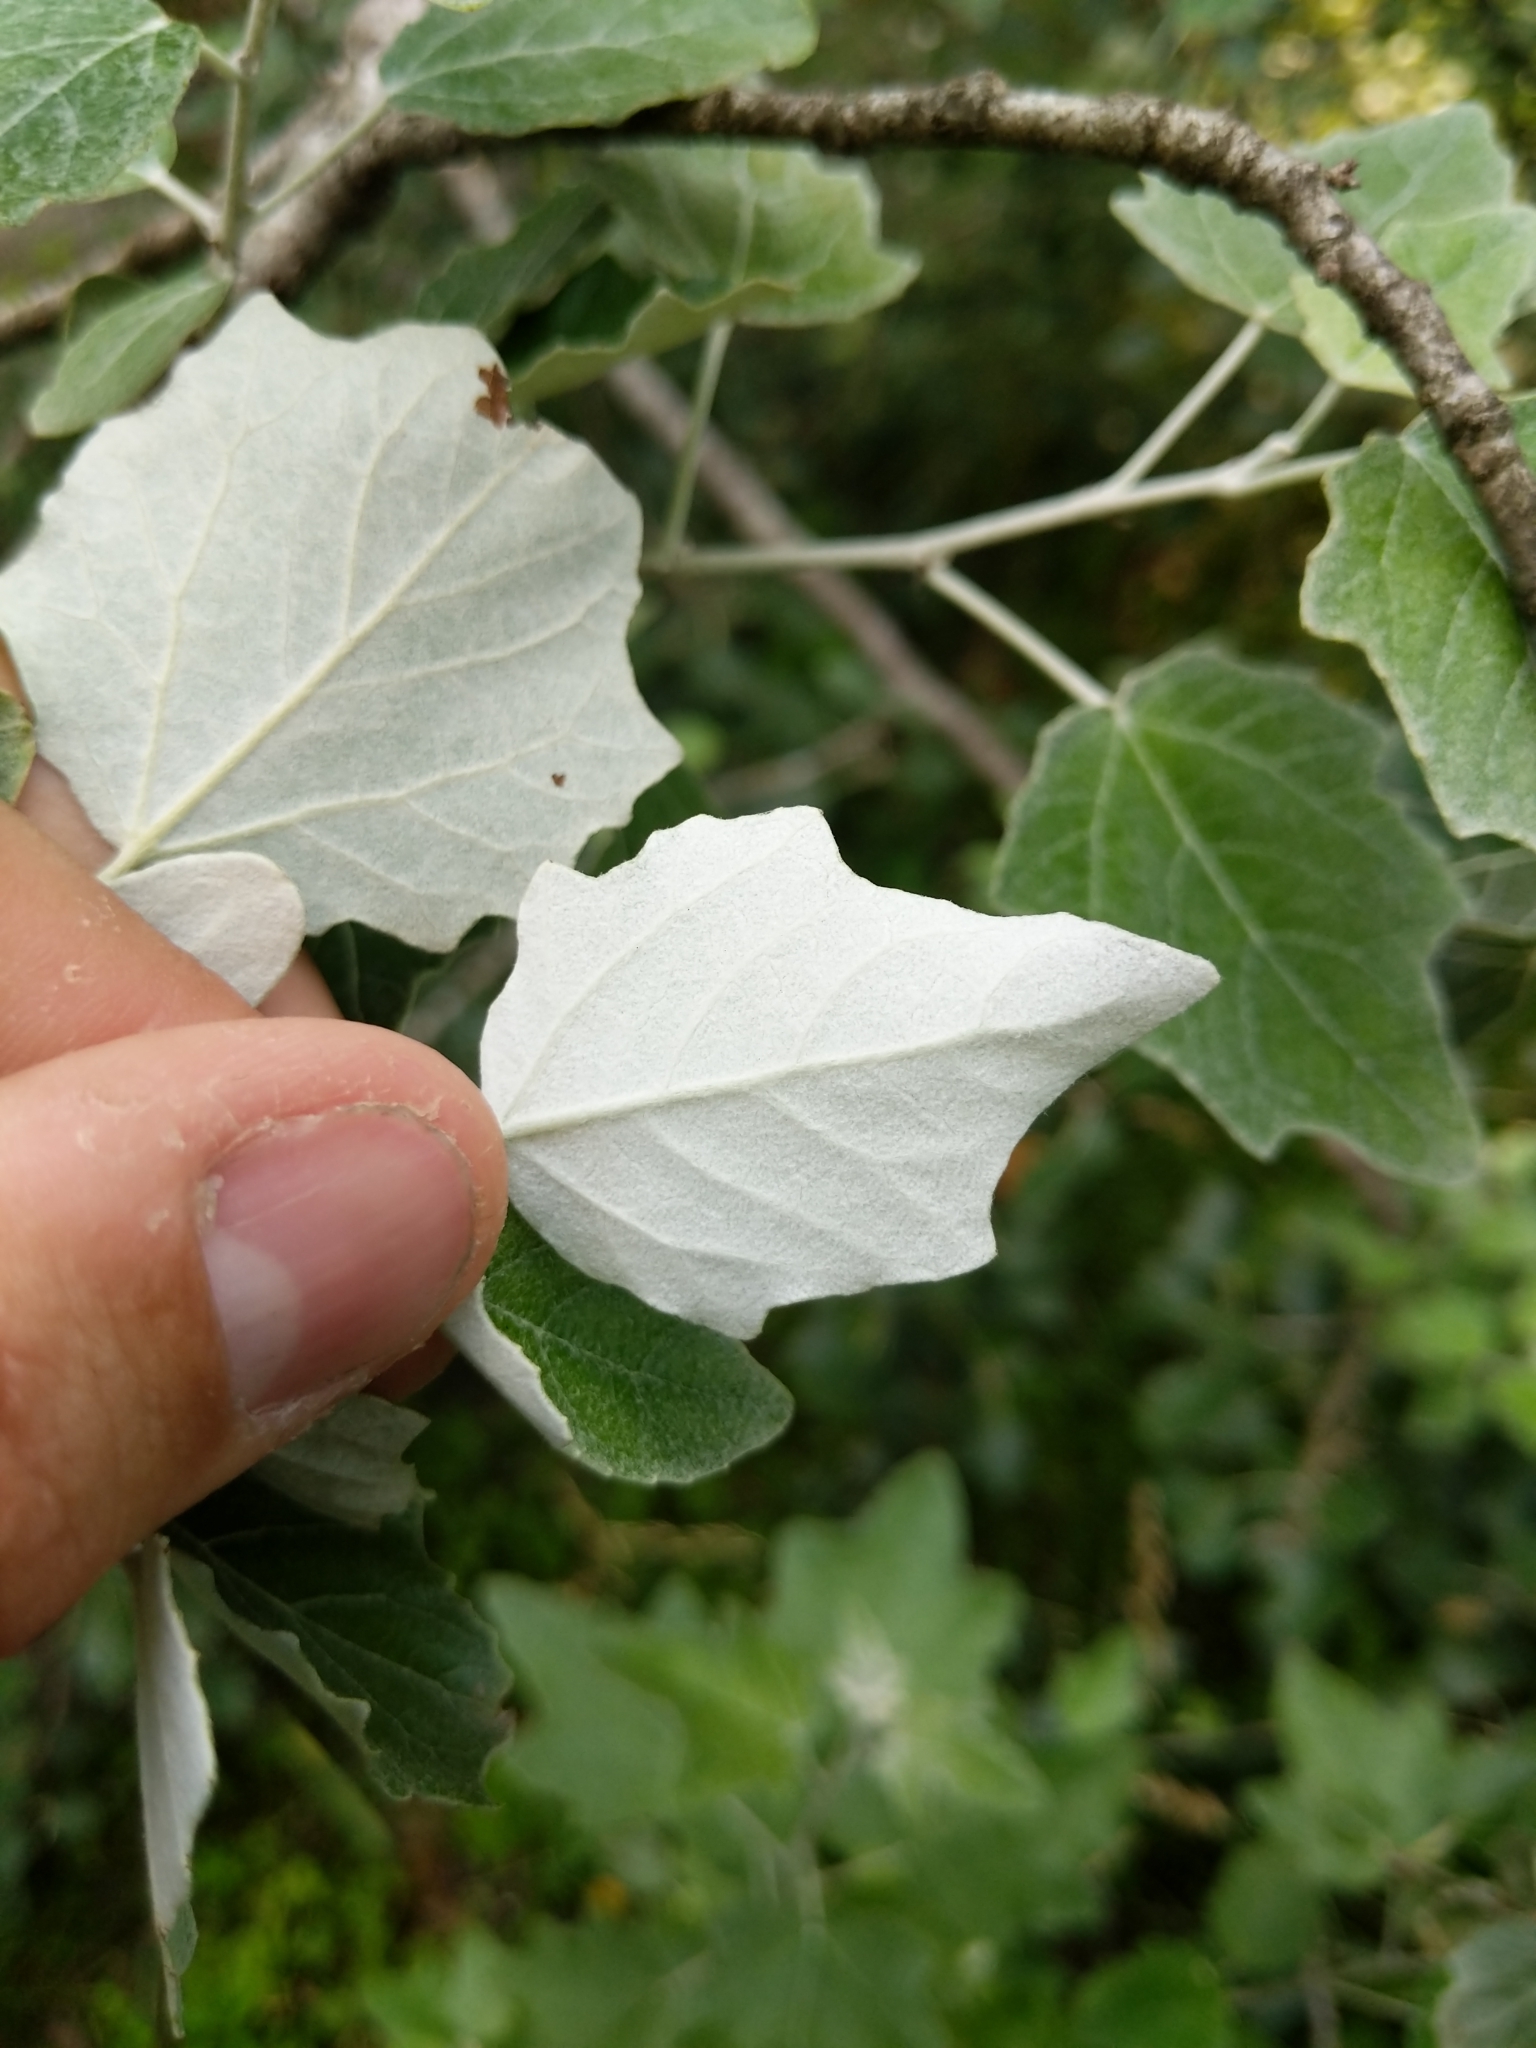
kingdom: Plantae
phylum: Tracheophyta
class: Magnoliopsida
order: Malpighiales
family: Salicaceae
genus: Populus
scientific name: Populus alba
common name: White poplar
